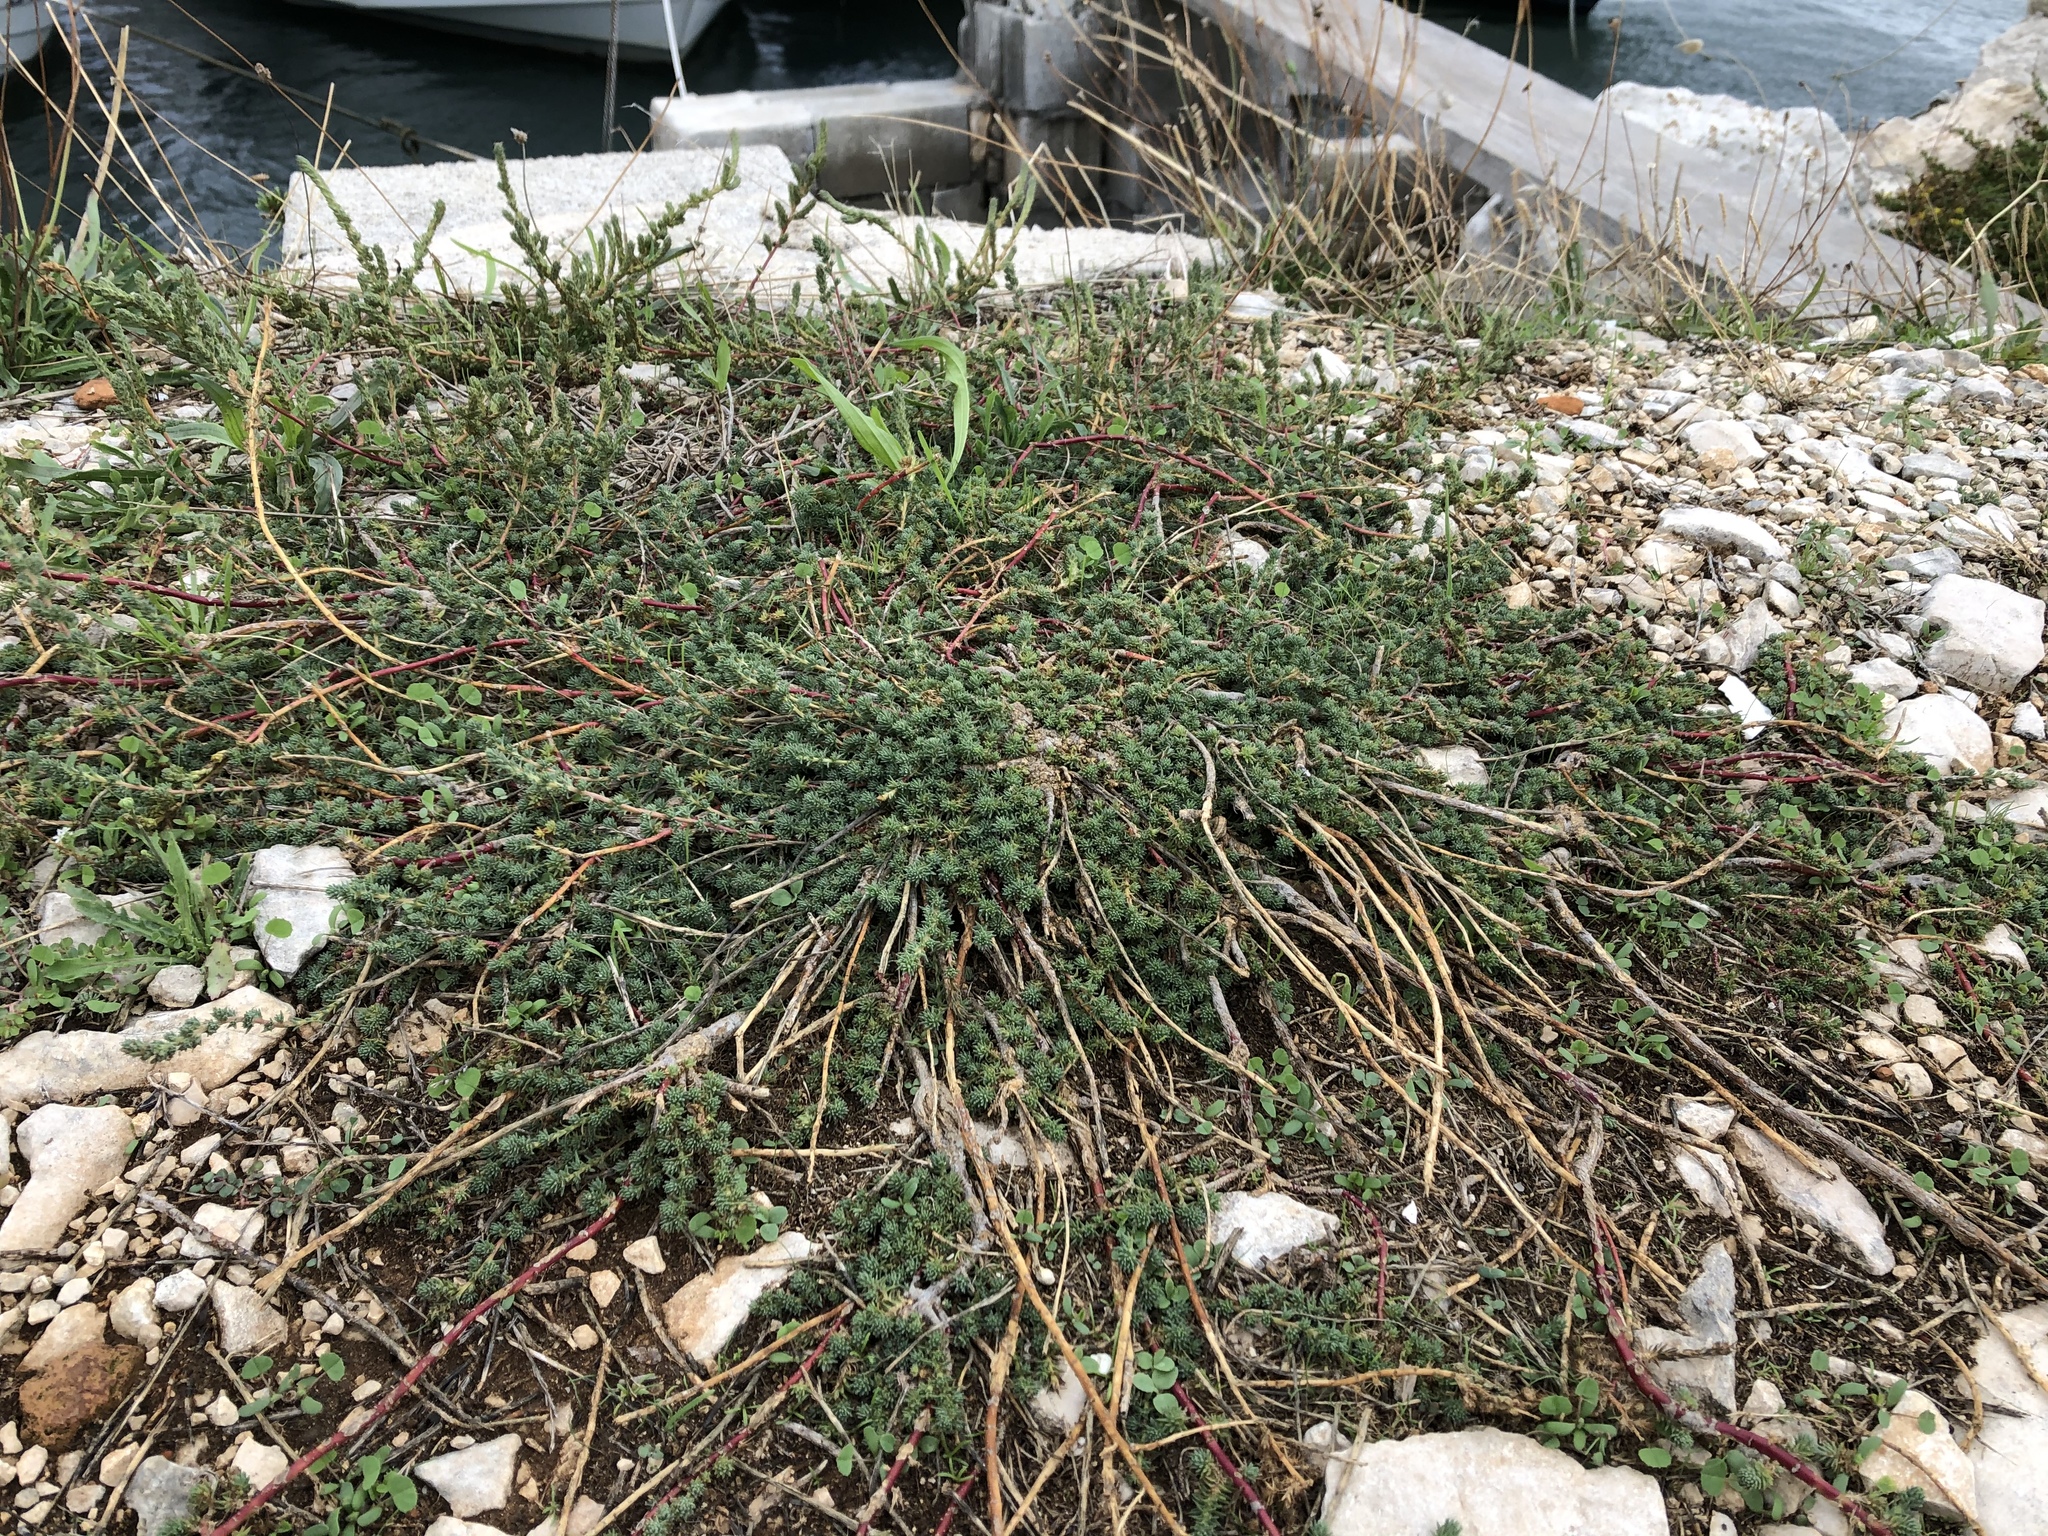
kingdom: Plantae
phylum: Tracheophyta
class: Magnoliopsida
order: Caryophyllales
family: Amaranthaceae
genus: Camphorosma
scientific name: Camphorosma monspeliaca
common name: Camphorfume
